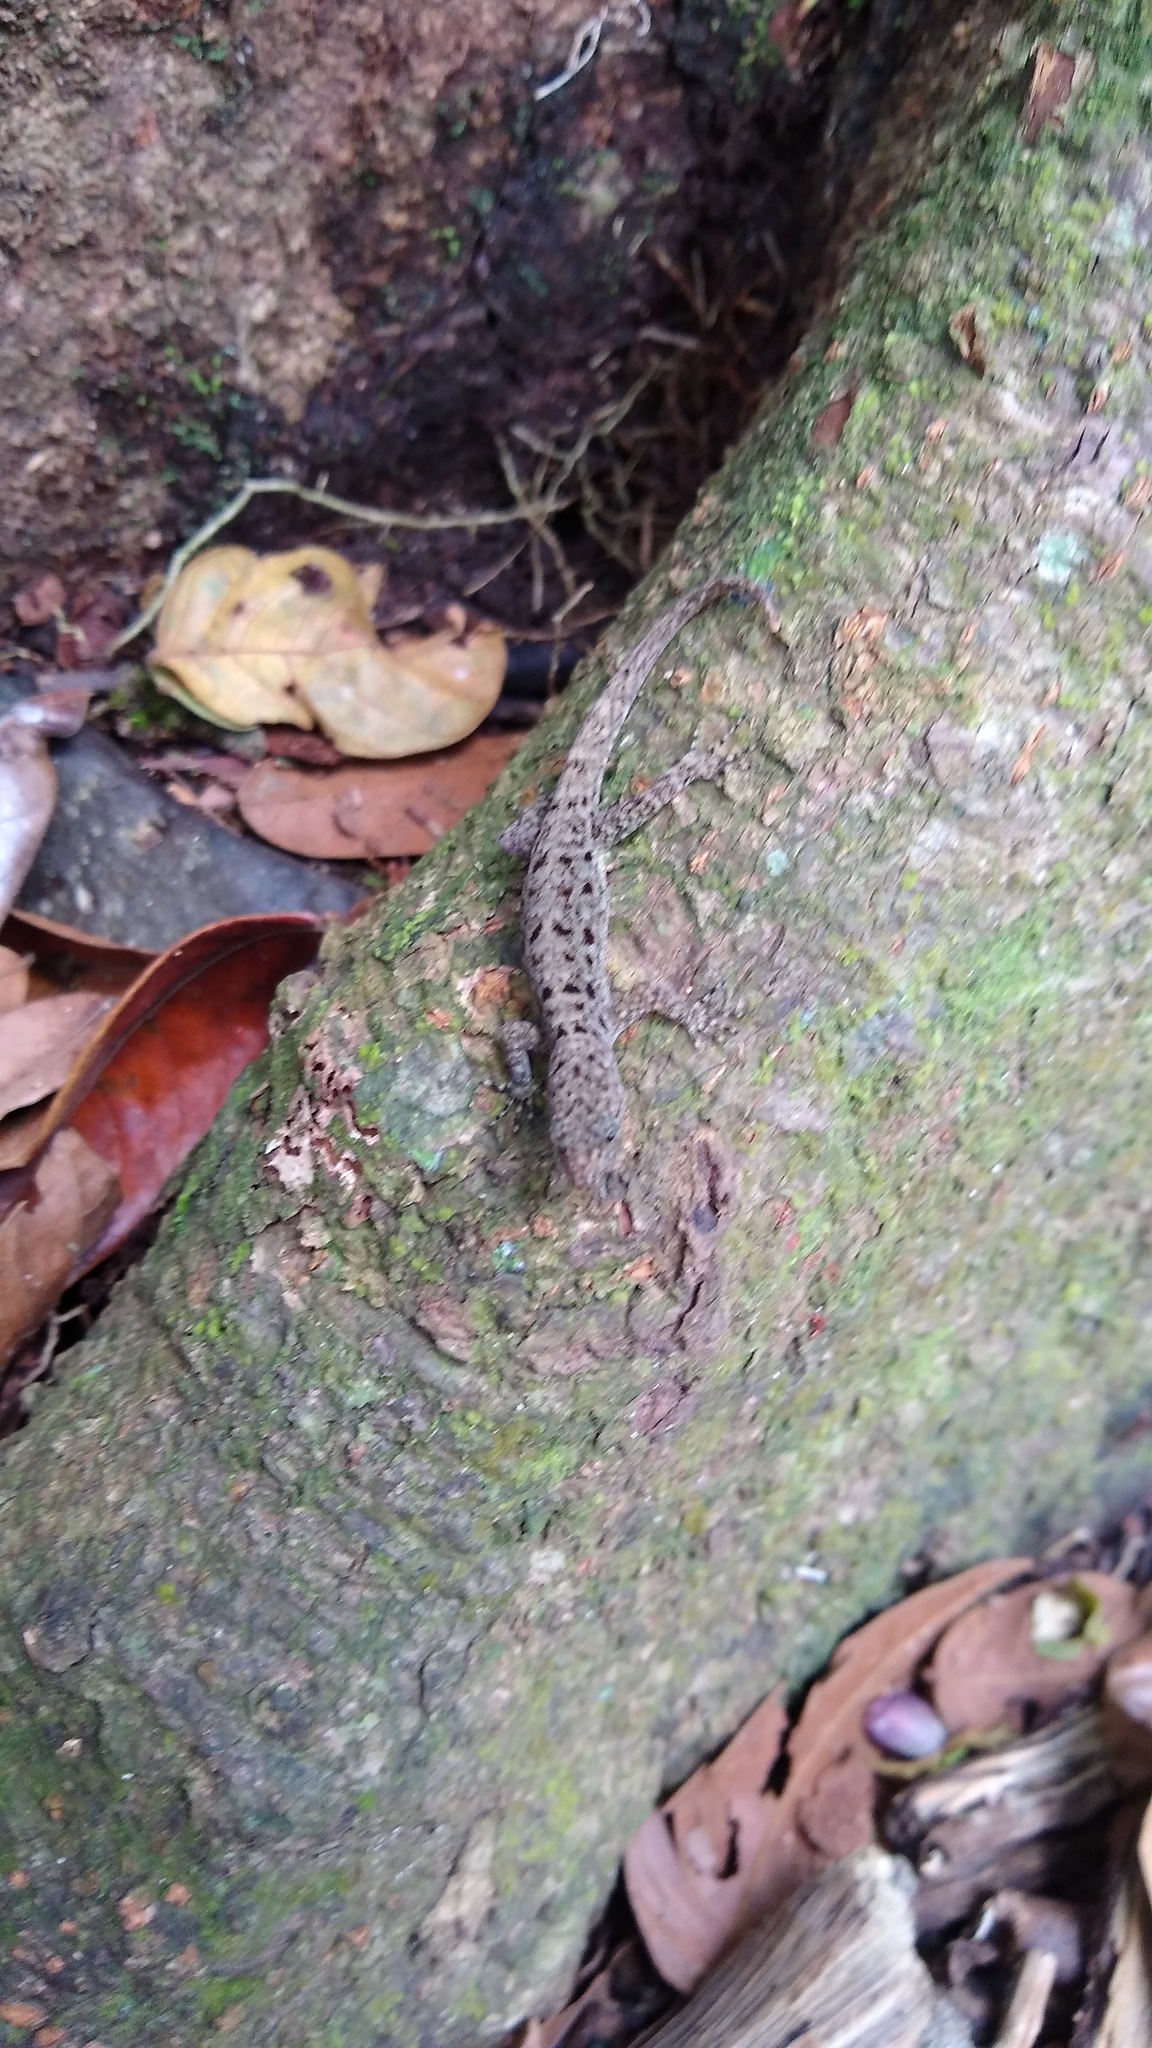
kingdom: Animalia
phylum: Chordata
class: Squamata
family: Sphaerodactylidae
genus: Gonatodes
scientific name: Gonatodes albogularis
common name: Yellow-headed gecko
